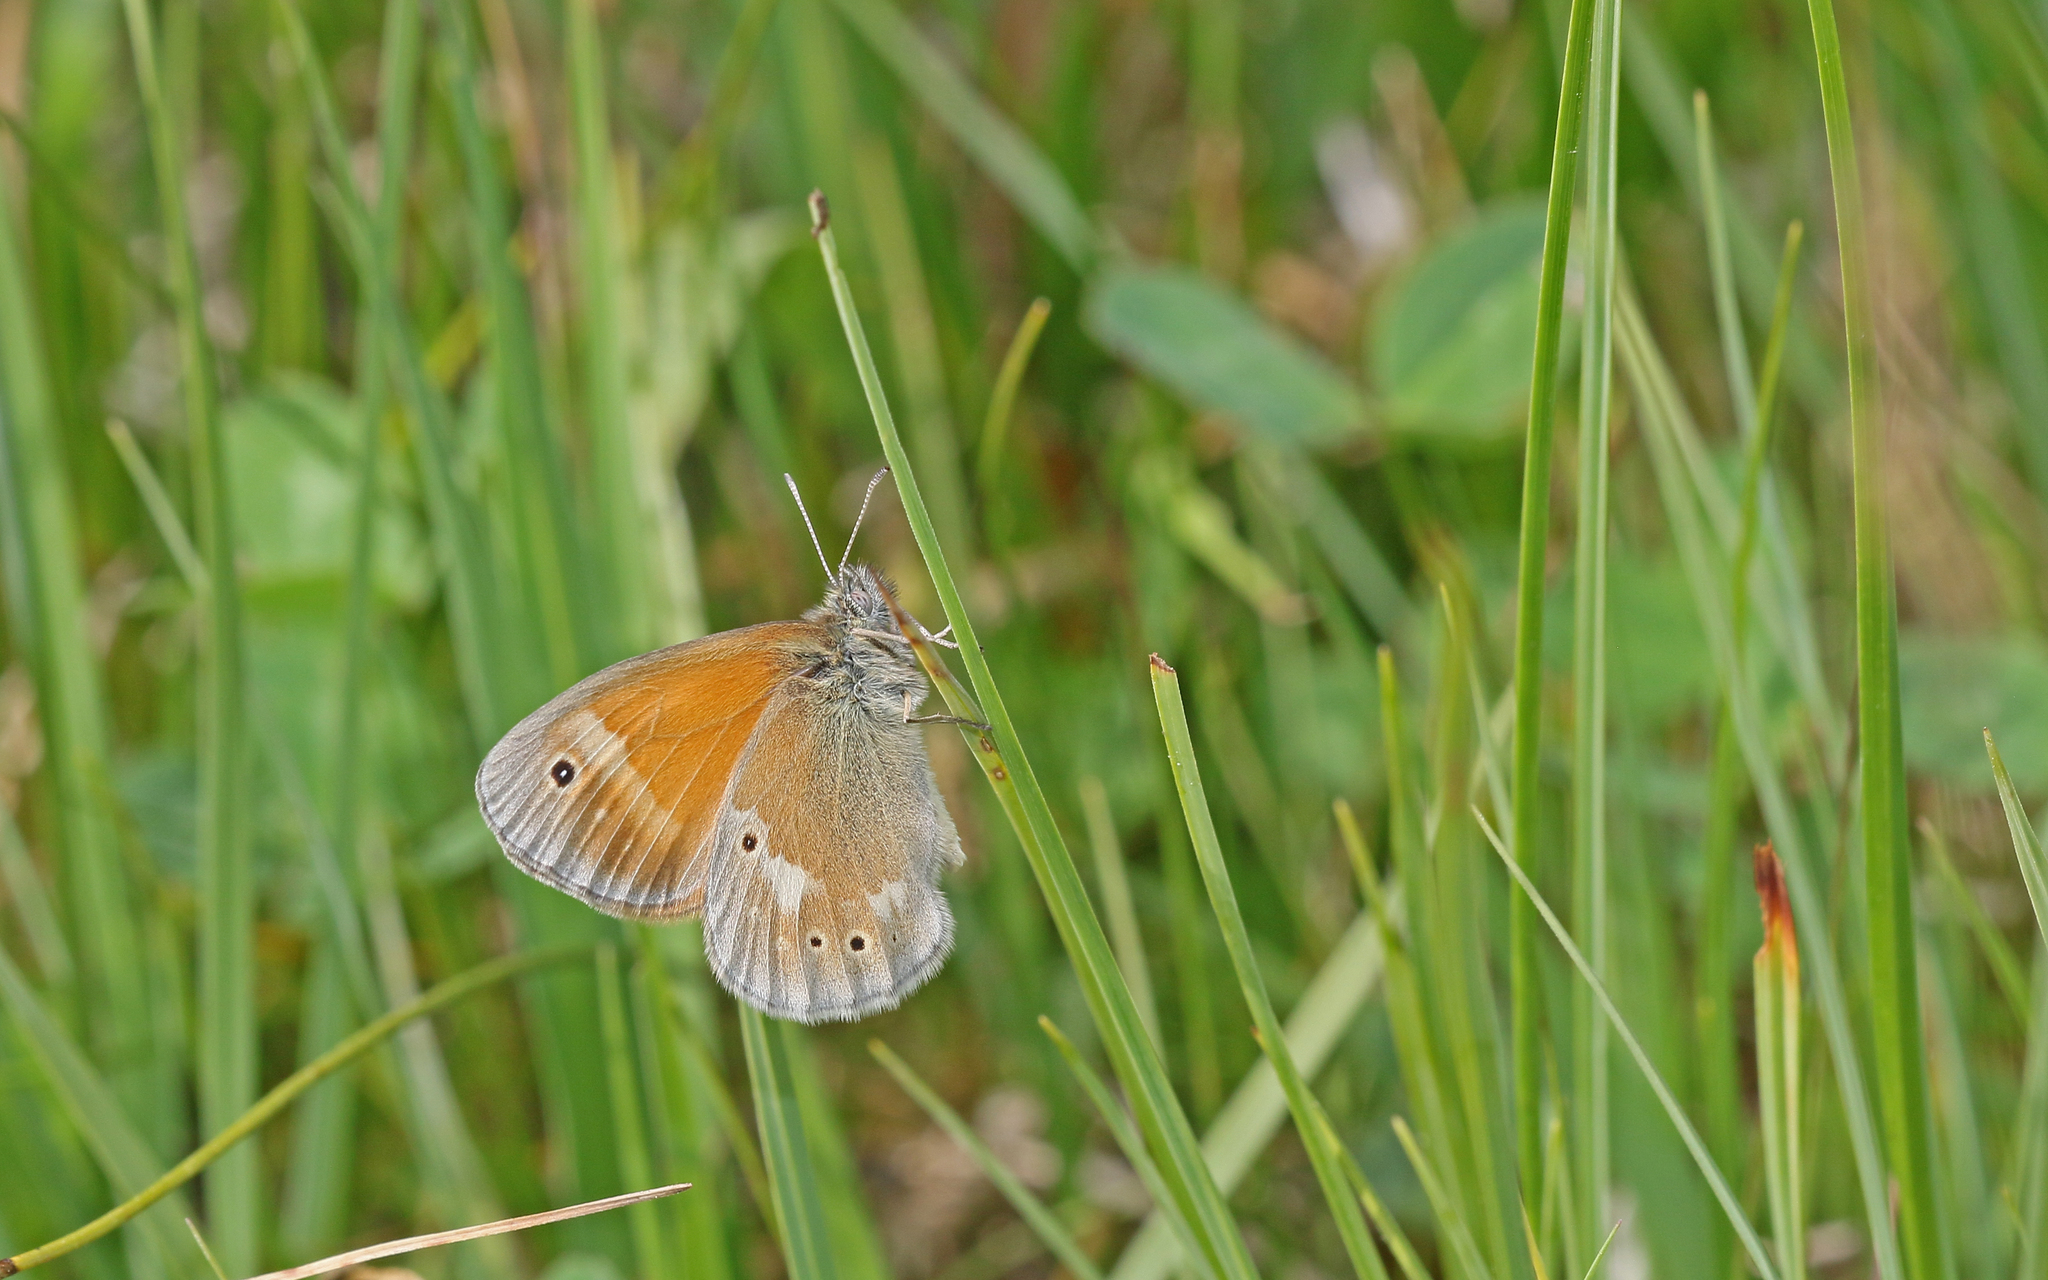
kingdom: Animalia
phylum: Arthropoda
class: Insecta
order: Lepidoptera
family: Nymphalidae
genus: Coenonympha
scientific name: Coenonympha tullia
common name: Large heath
